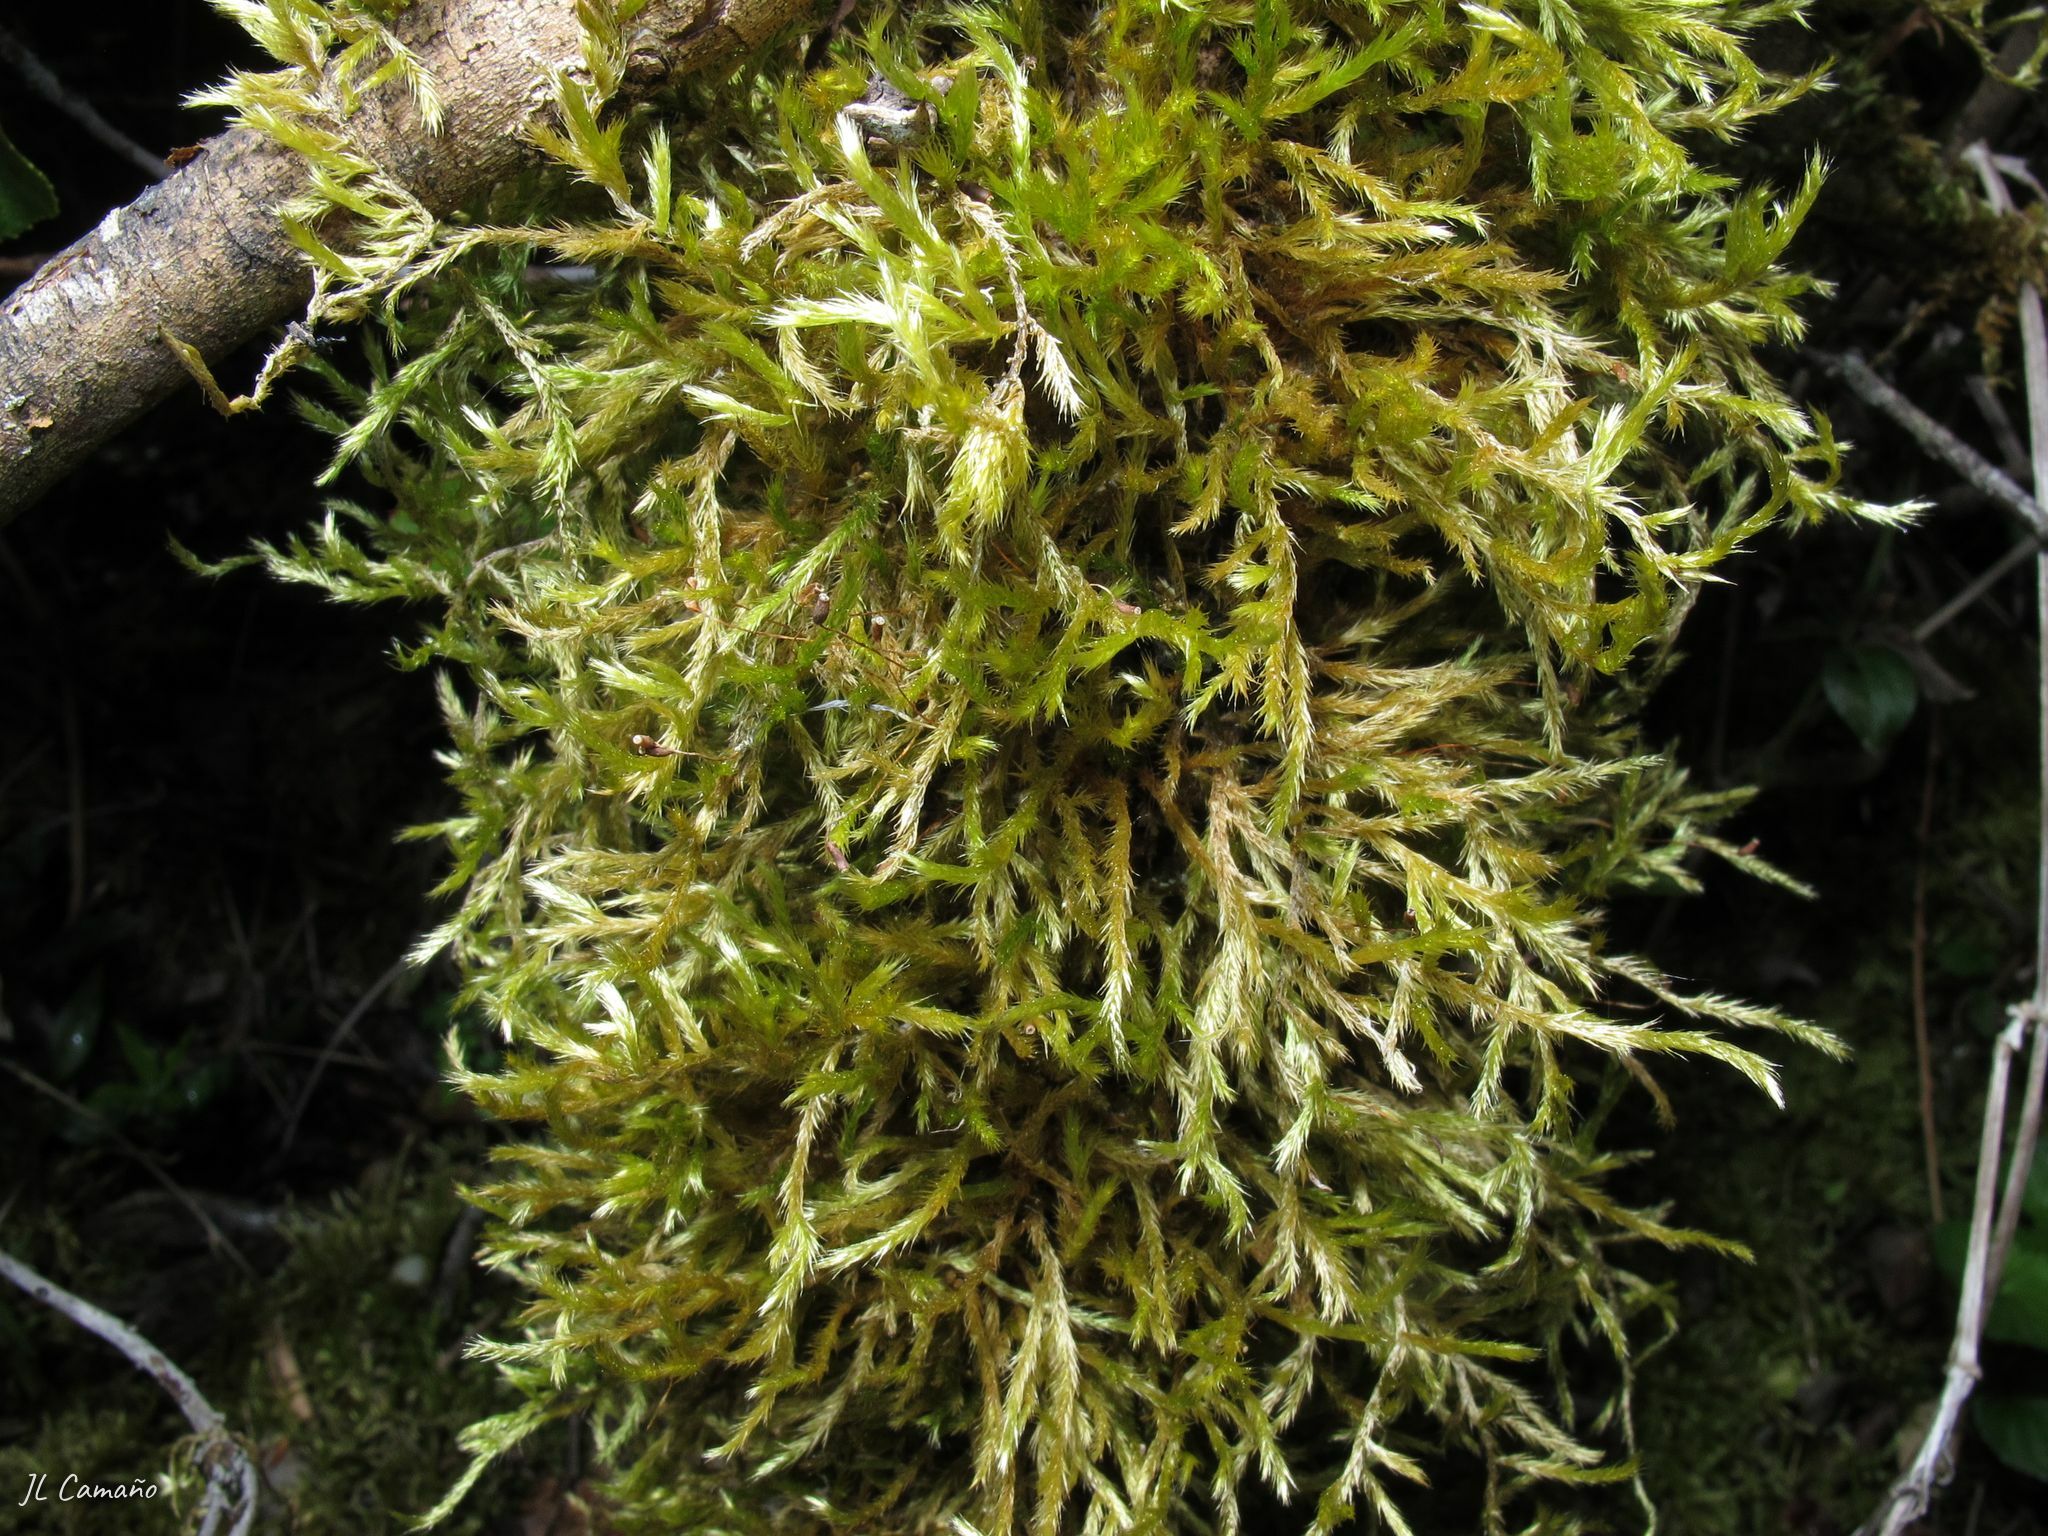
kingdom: Plantae
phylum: Bryophyta
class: Bryopsida
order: Hypnales
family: Brachytheciaceae
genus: Homalothecium
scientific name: Homalothecium lutescens
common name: Yellow feather-moss
